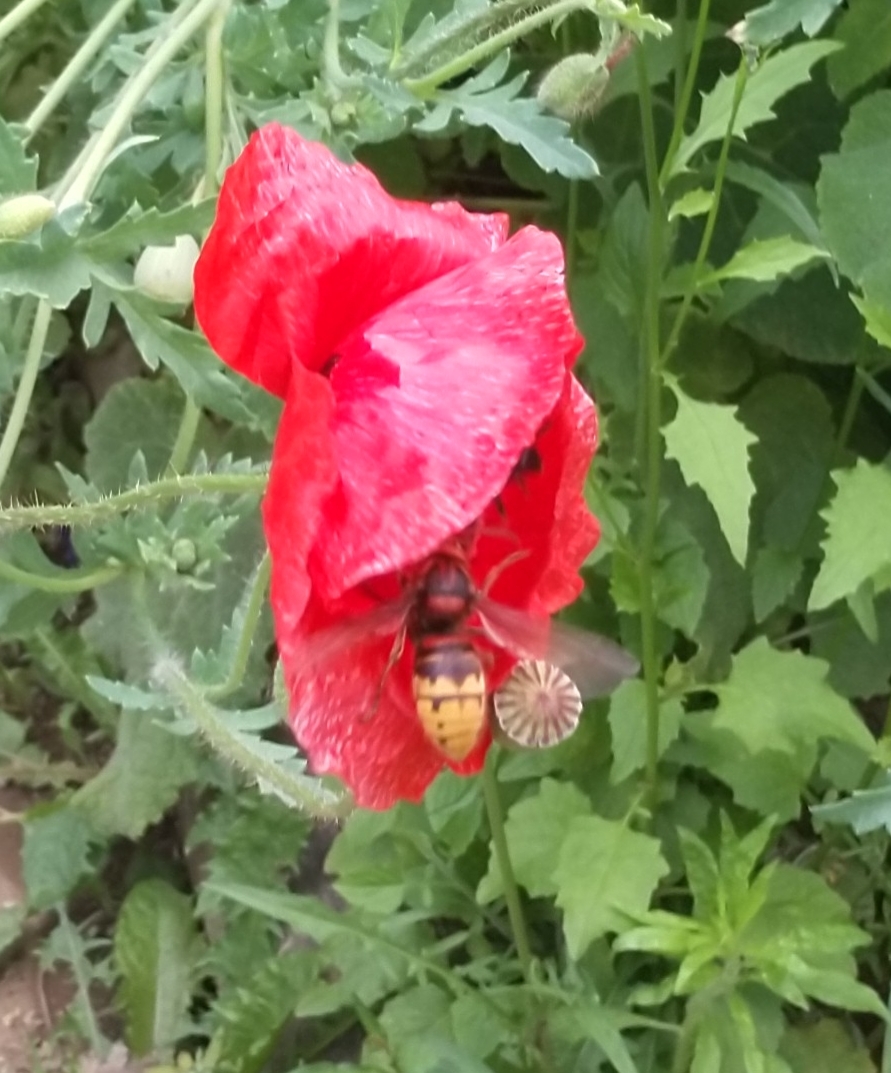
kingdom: Animalia
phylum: Arthropoda
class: Insecta
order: Hymenoptera
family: Vespidae
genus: Vespa
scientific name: Vespa crabro
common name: Hornet
